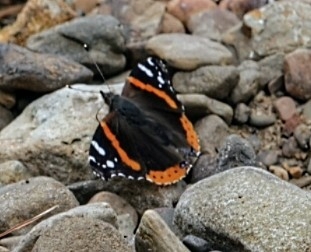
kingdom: Animalia
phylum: Arthropoda
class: Insecta
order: Lepidoptera
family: Nymphalidae
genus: Vanessa
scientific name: Vanessa atalanta
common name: Red admiral
